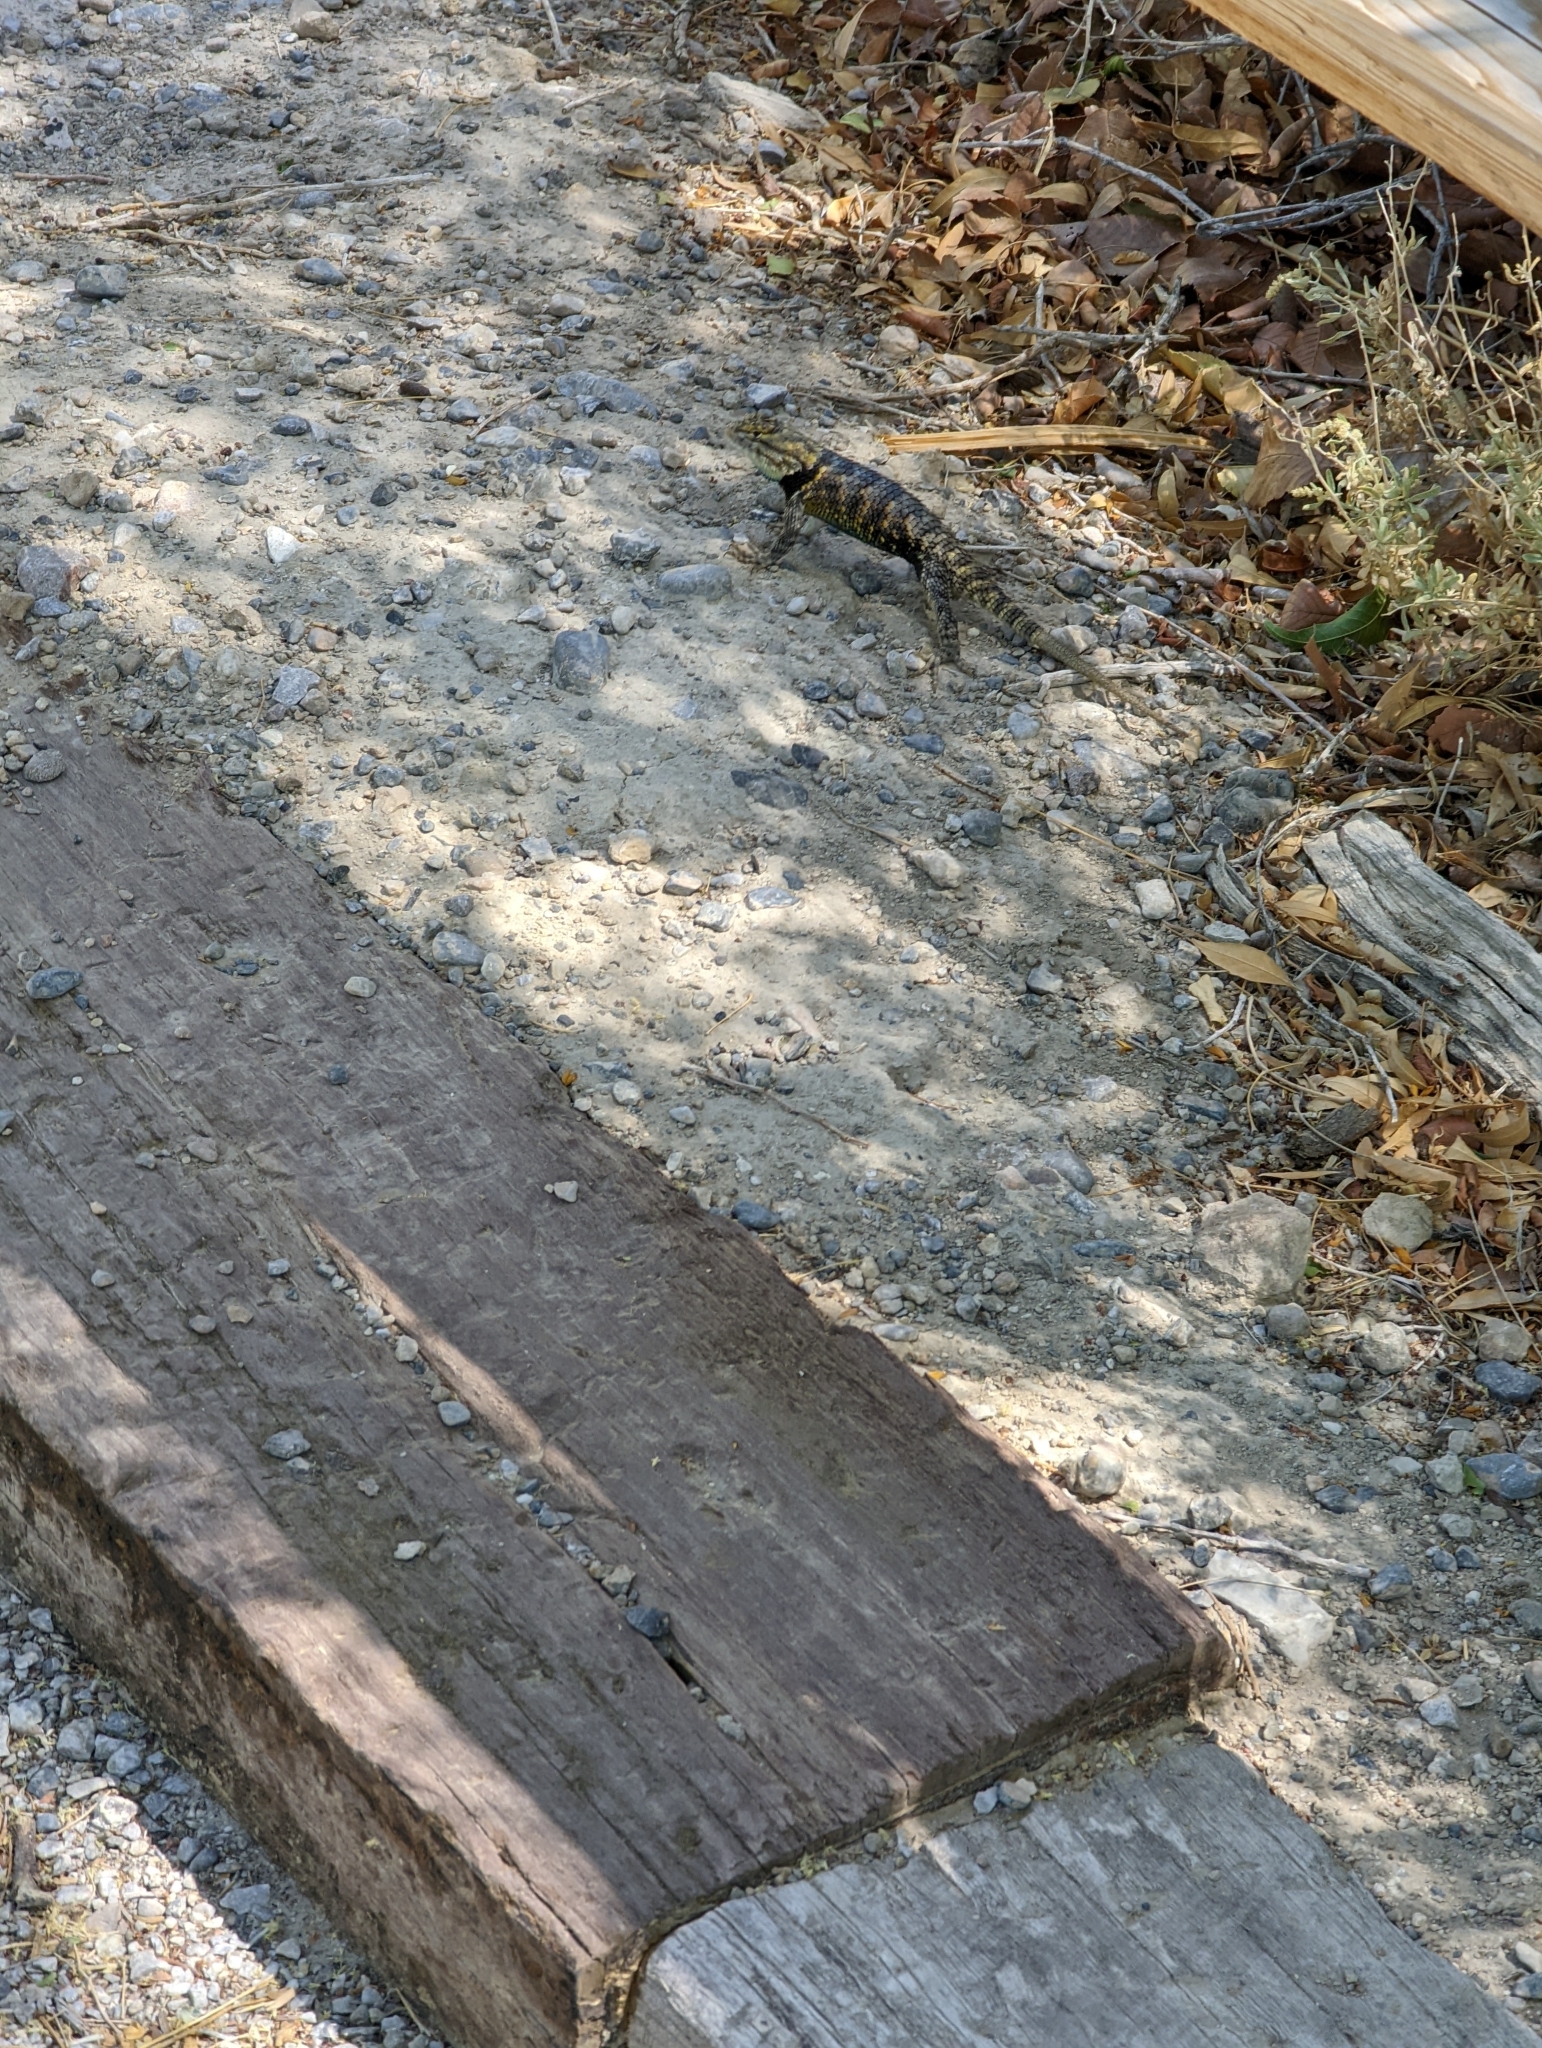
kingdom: Animalia
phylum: Chordata
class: Squamata
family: Phrynosomatidae
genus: Sceloporus
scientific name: Sceloporus uniformis
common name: Yellow-backed spiny lizard
